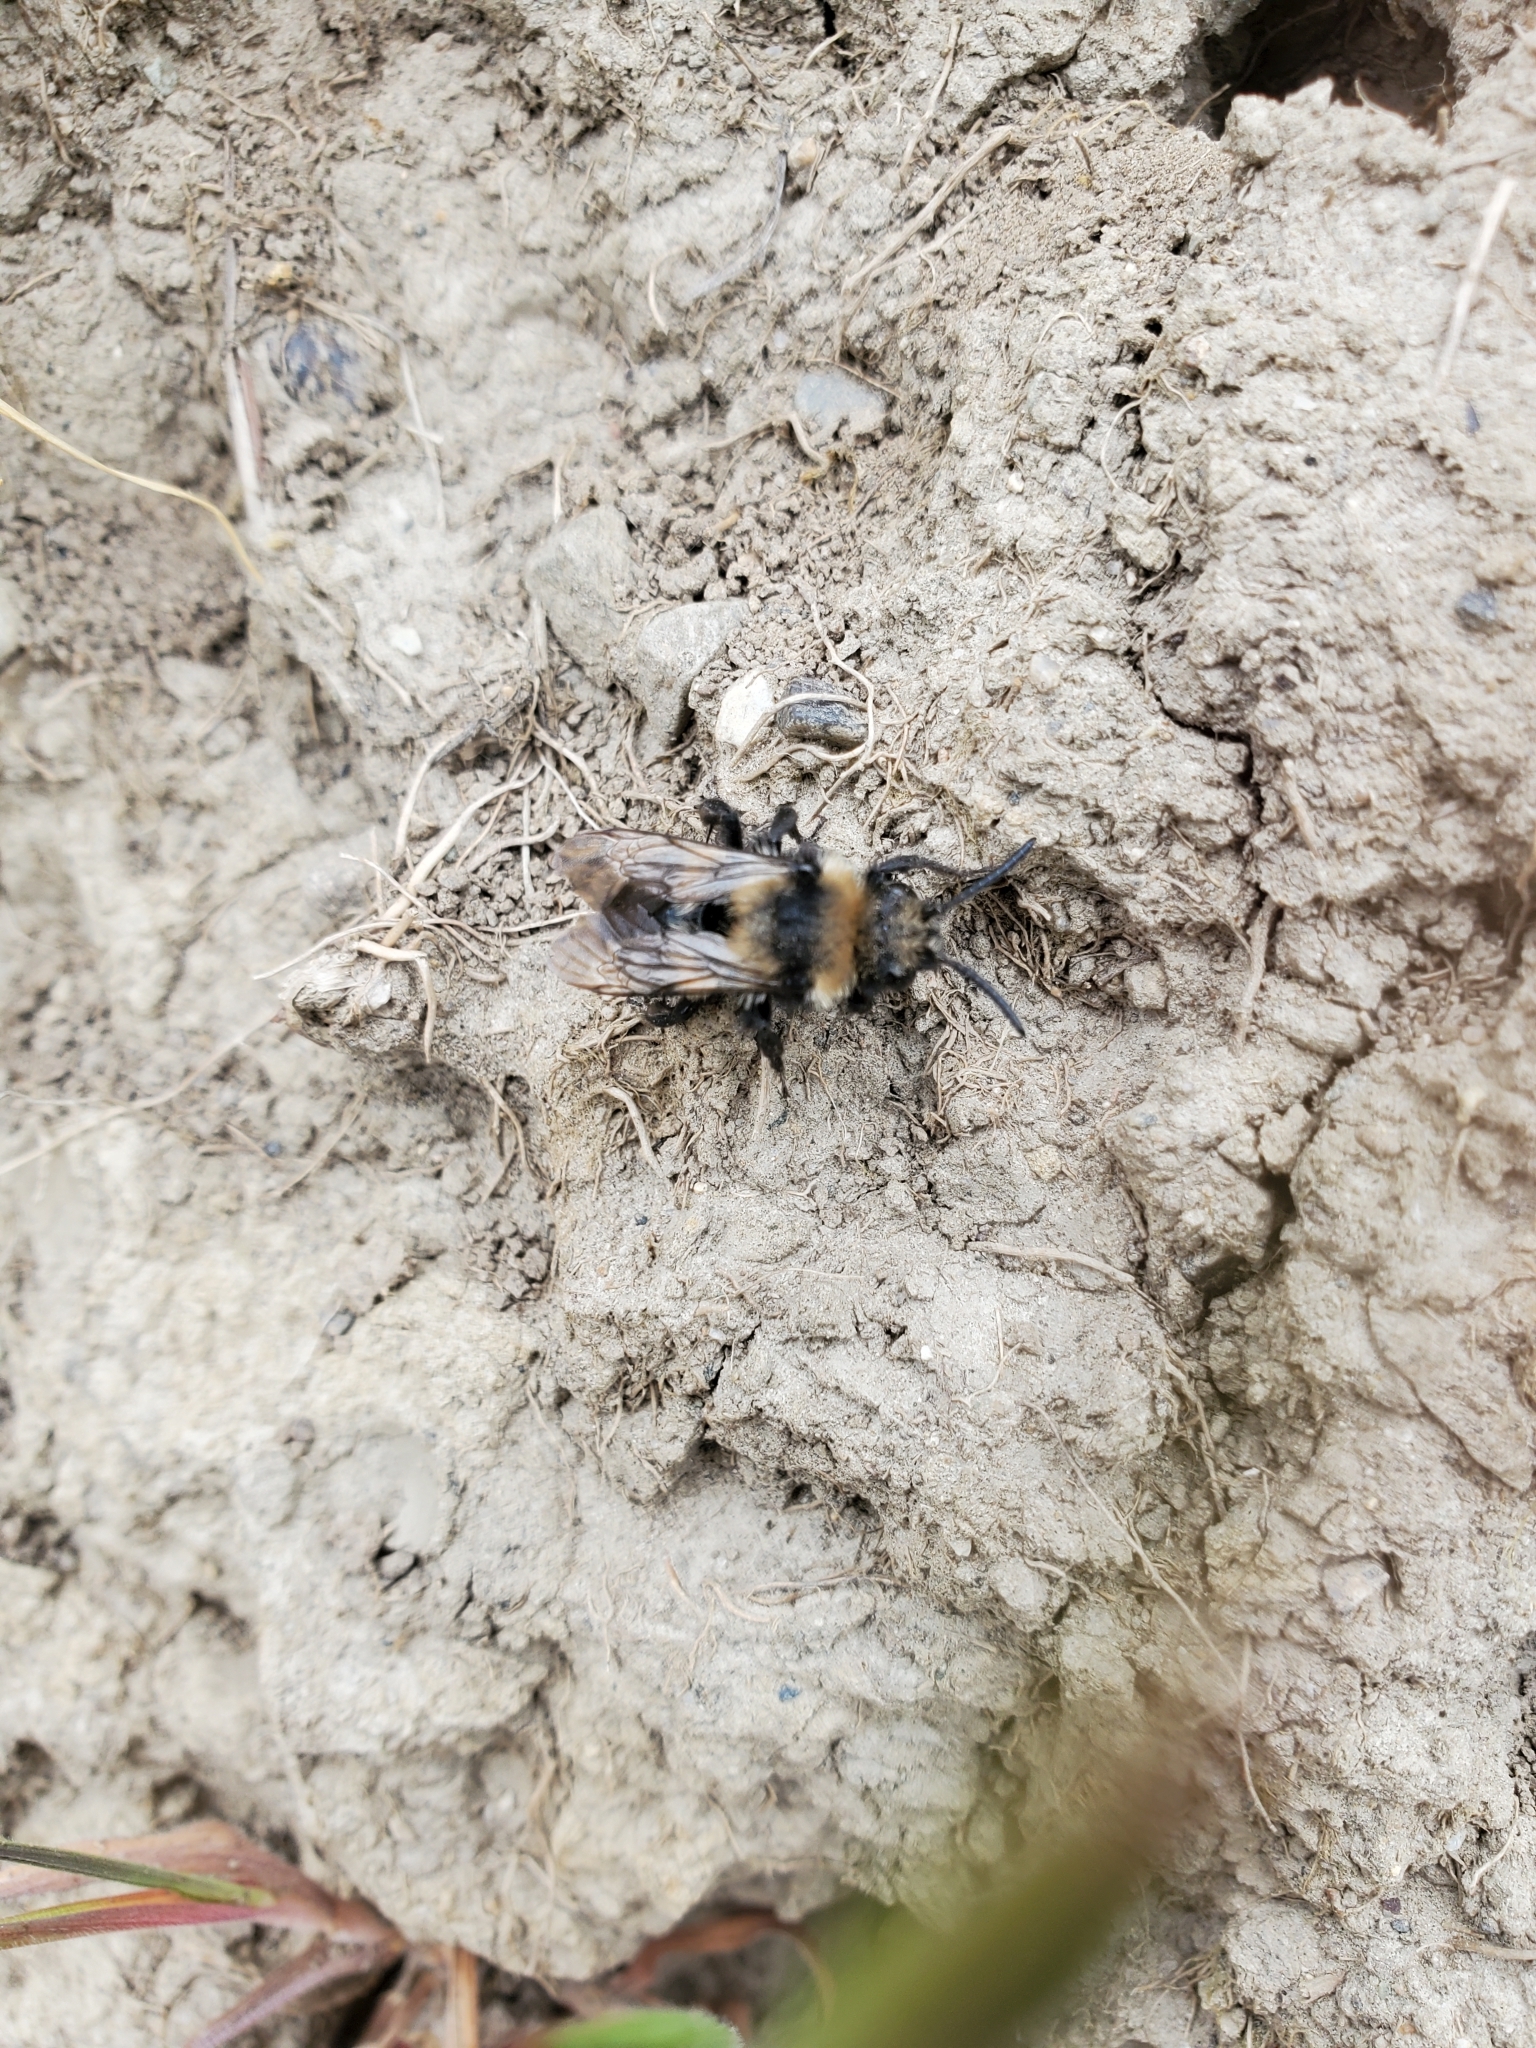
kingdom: Animalia
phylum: Arthropoda
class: Insecta
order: Hymenoptera
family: Apidae
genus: Melecta
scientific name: Melecta separata
